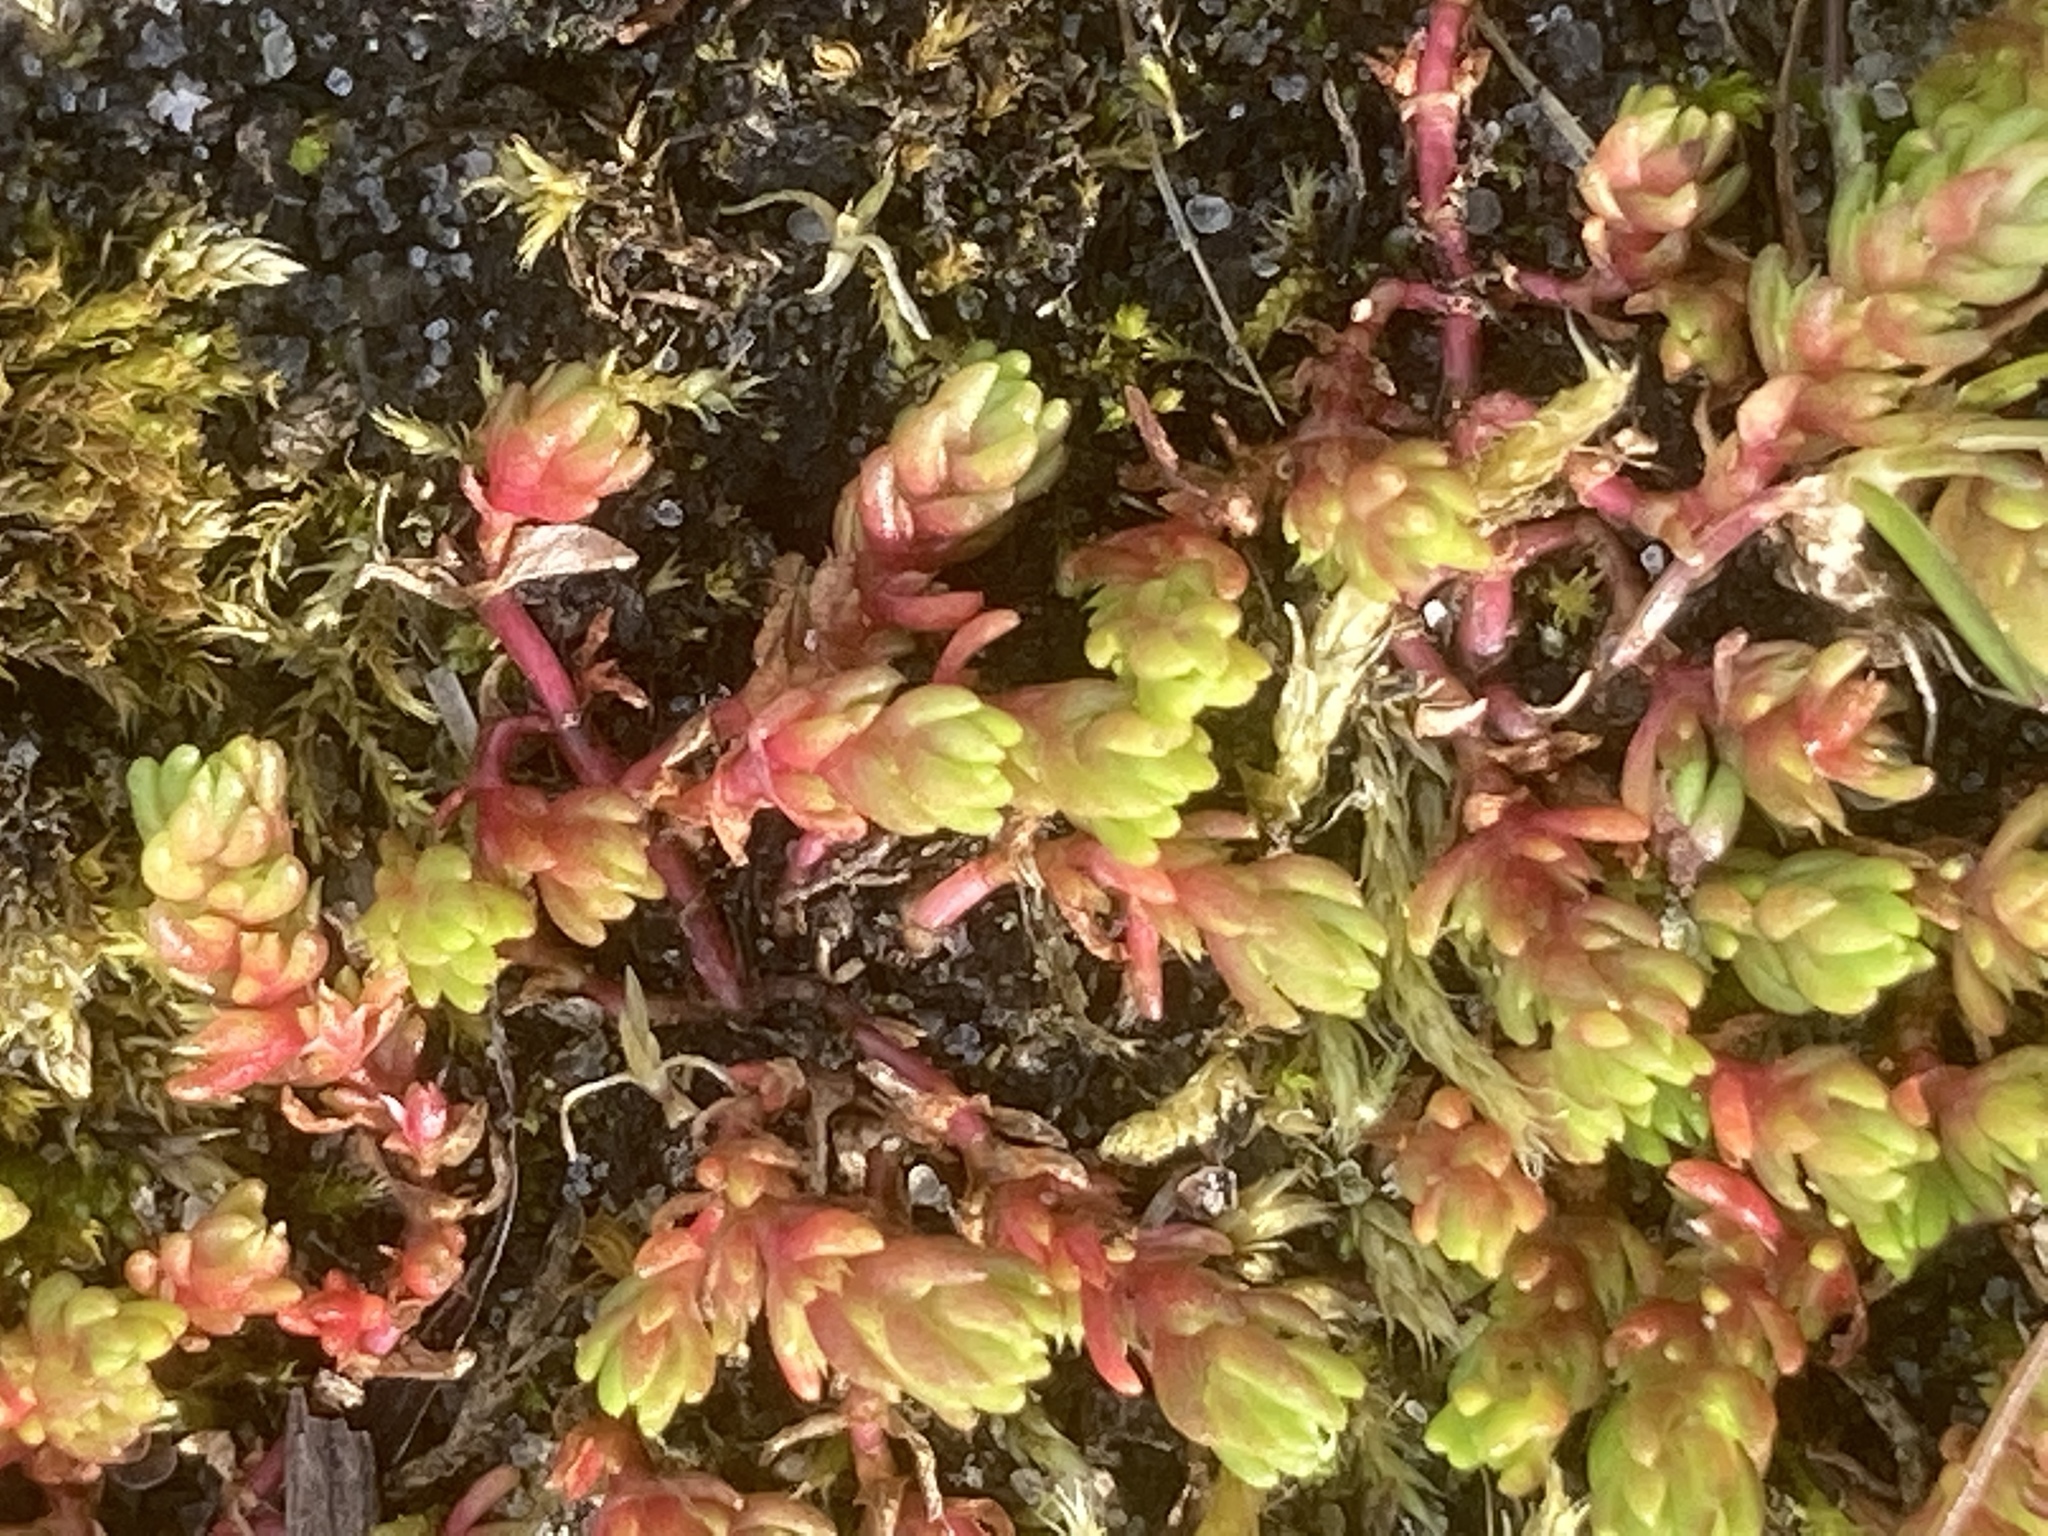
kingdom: Plantae
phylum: Tracheophyta
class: Magnoliopsida
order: Saxifragales
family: Crassulaceae
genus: Crassula
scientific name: Crassula tillaea
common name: Mossy stonecrop
